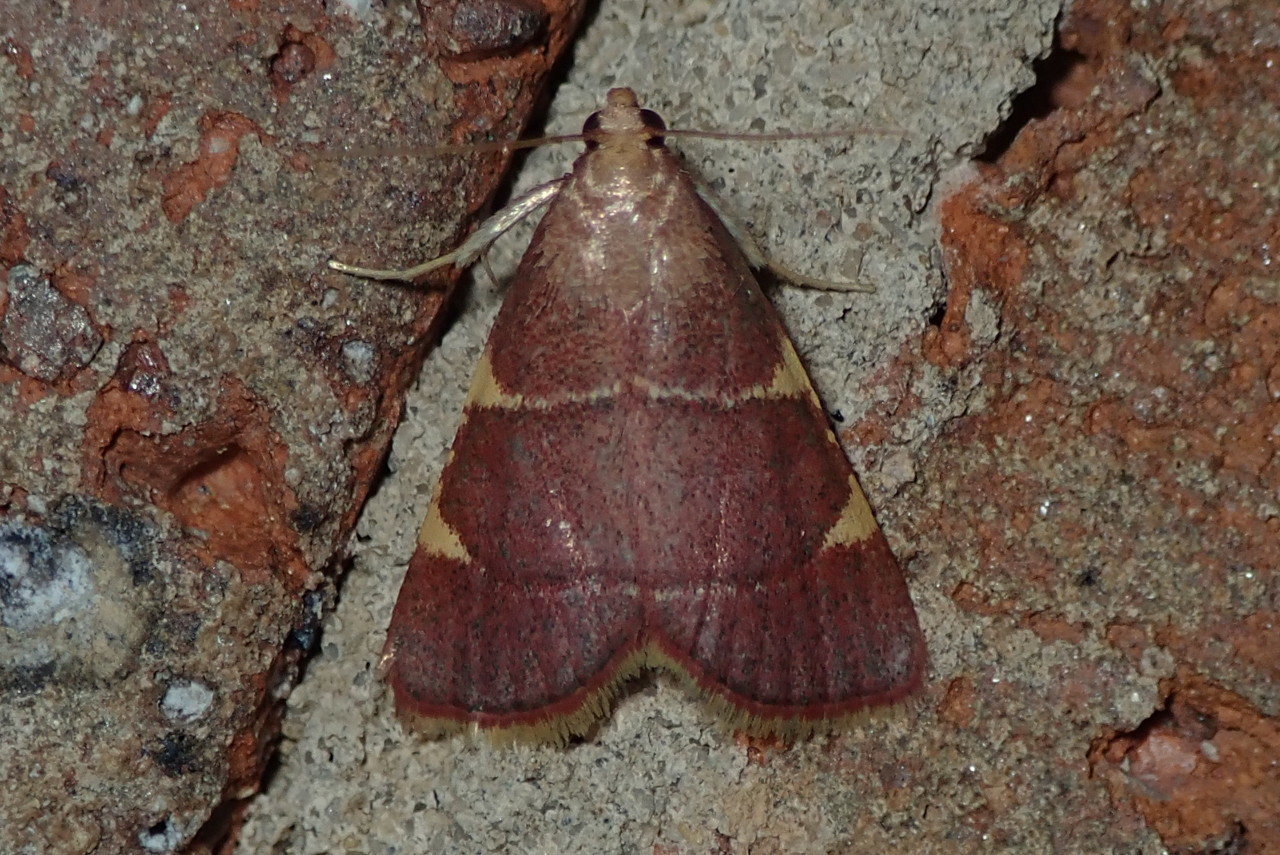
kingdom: Animalia
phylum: Arthropoda
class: Insecta
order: Lepidoptera
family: Pyralidae
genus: Hypsopygia
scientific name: Hypsopygia olinalis
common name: Yellow-fringed dolichomia moth
